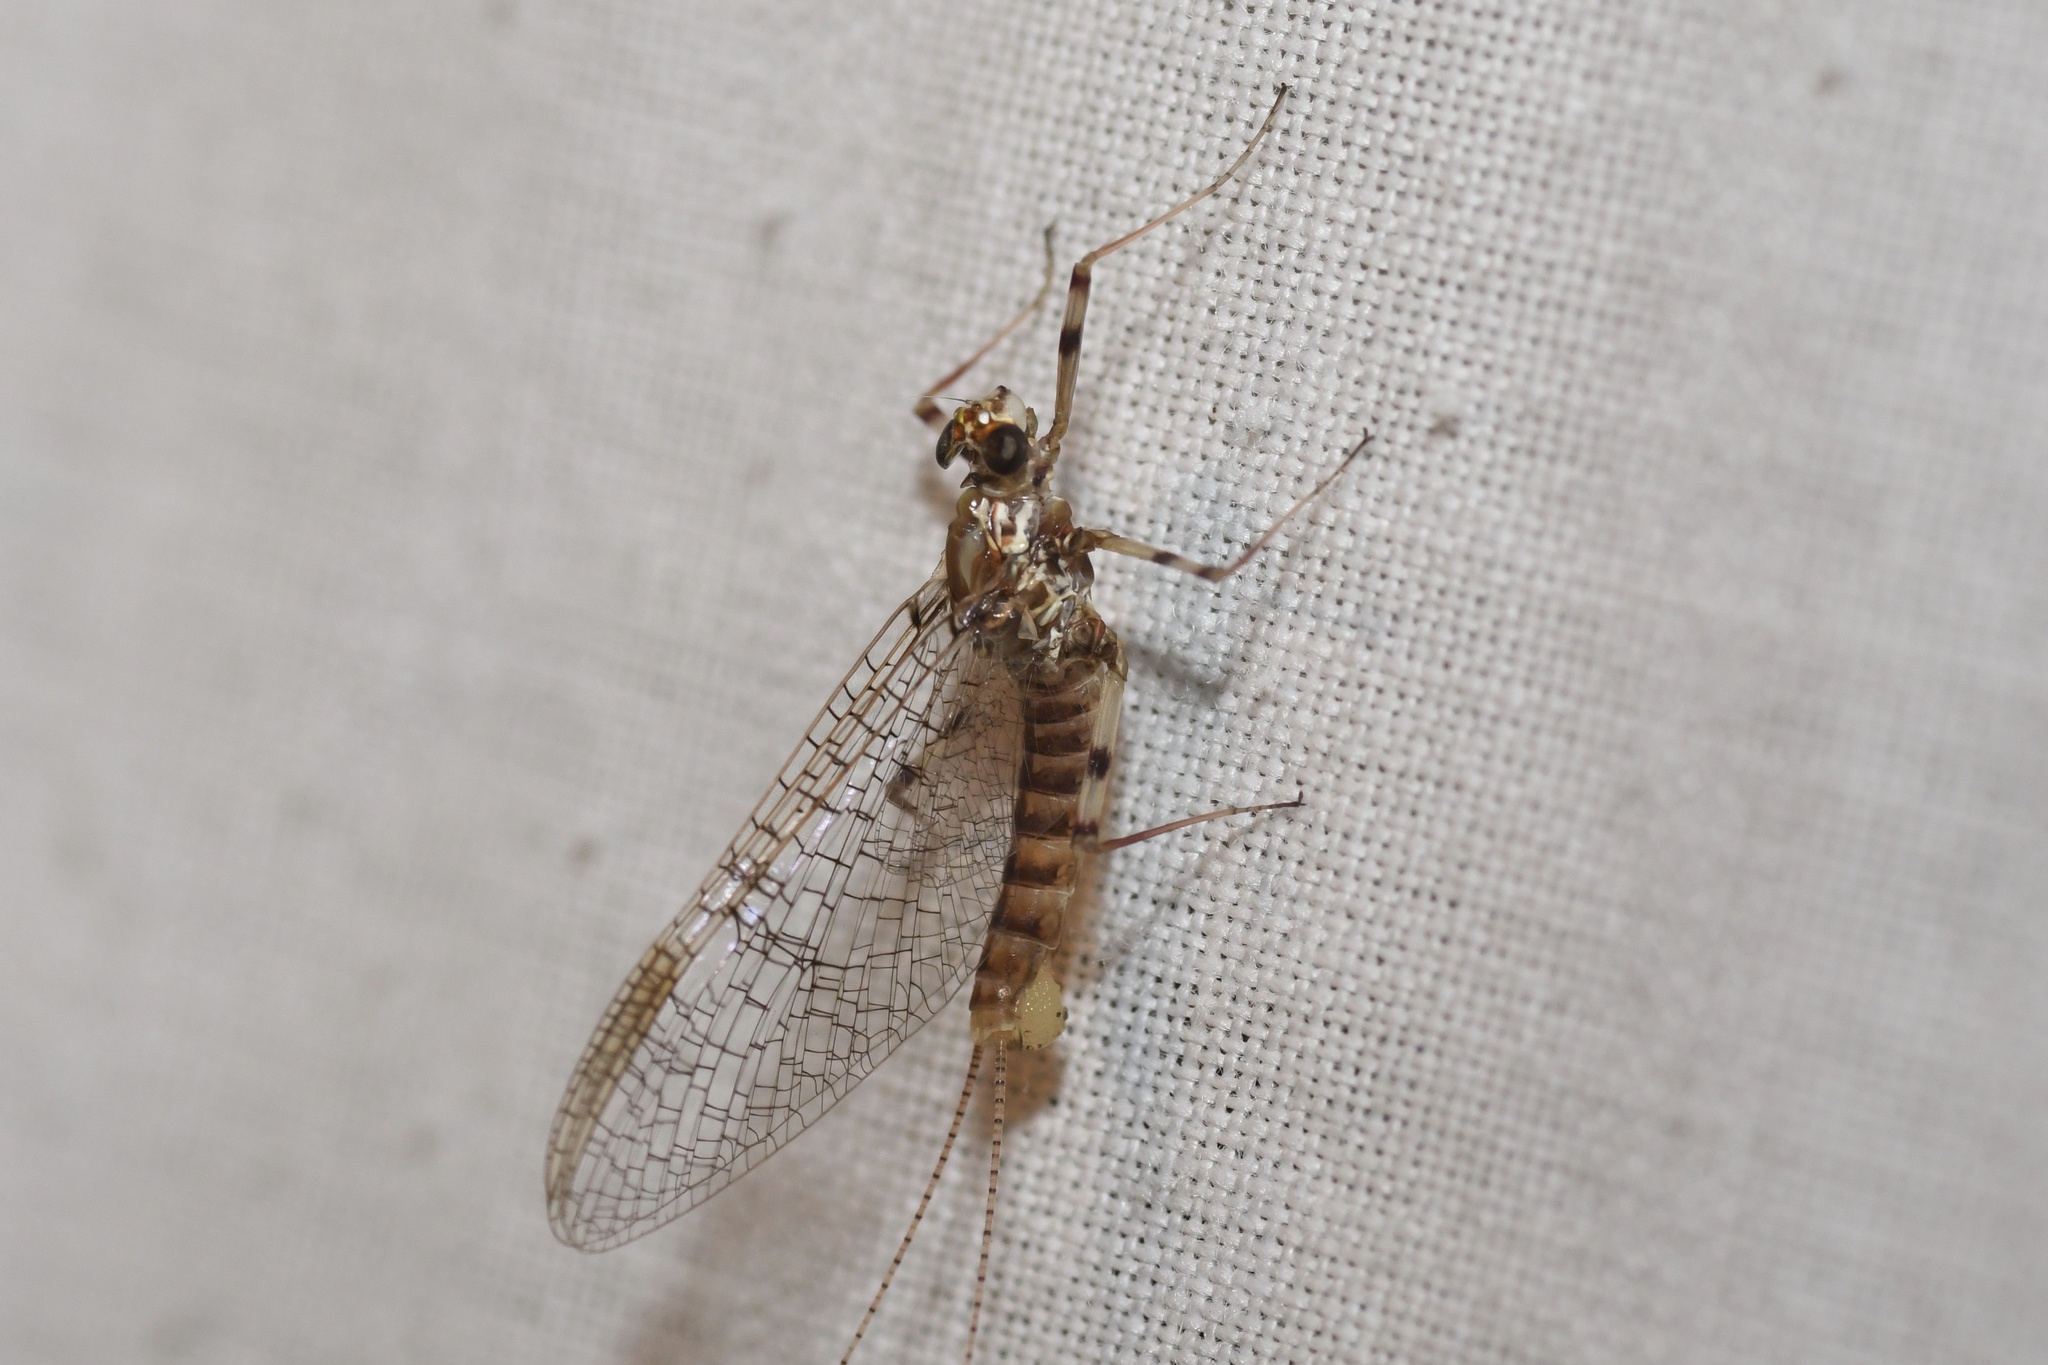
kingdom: Animalia
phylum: Arthropoda
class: Insecta
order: Ephemeroptera
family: Heptageniidae
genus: Maccaffertium
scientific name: Maccaffertium vicarium
